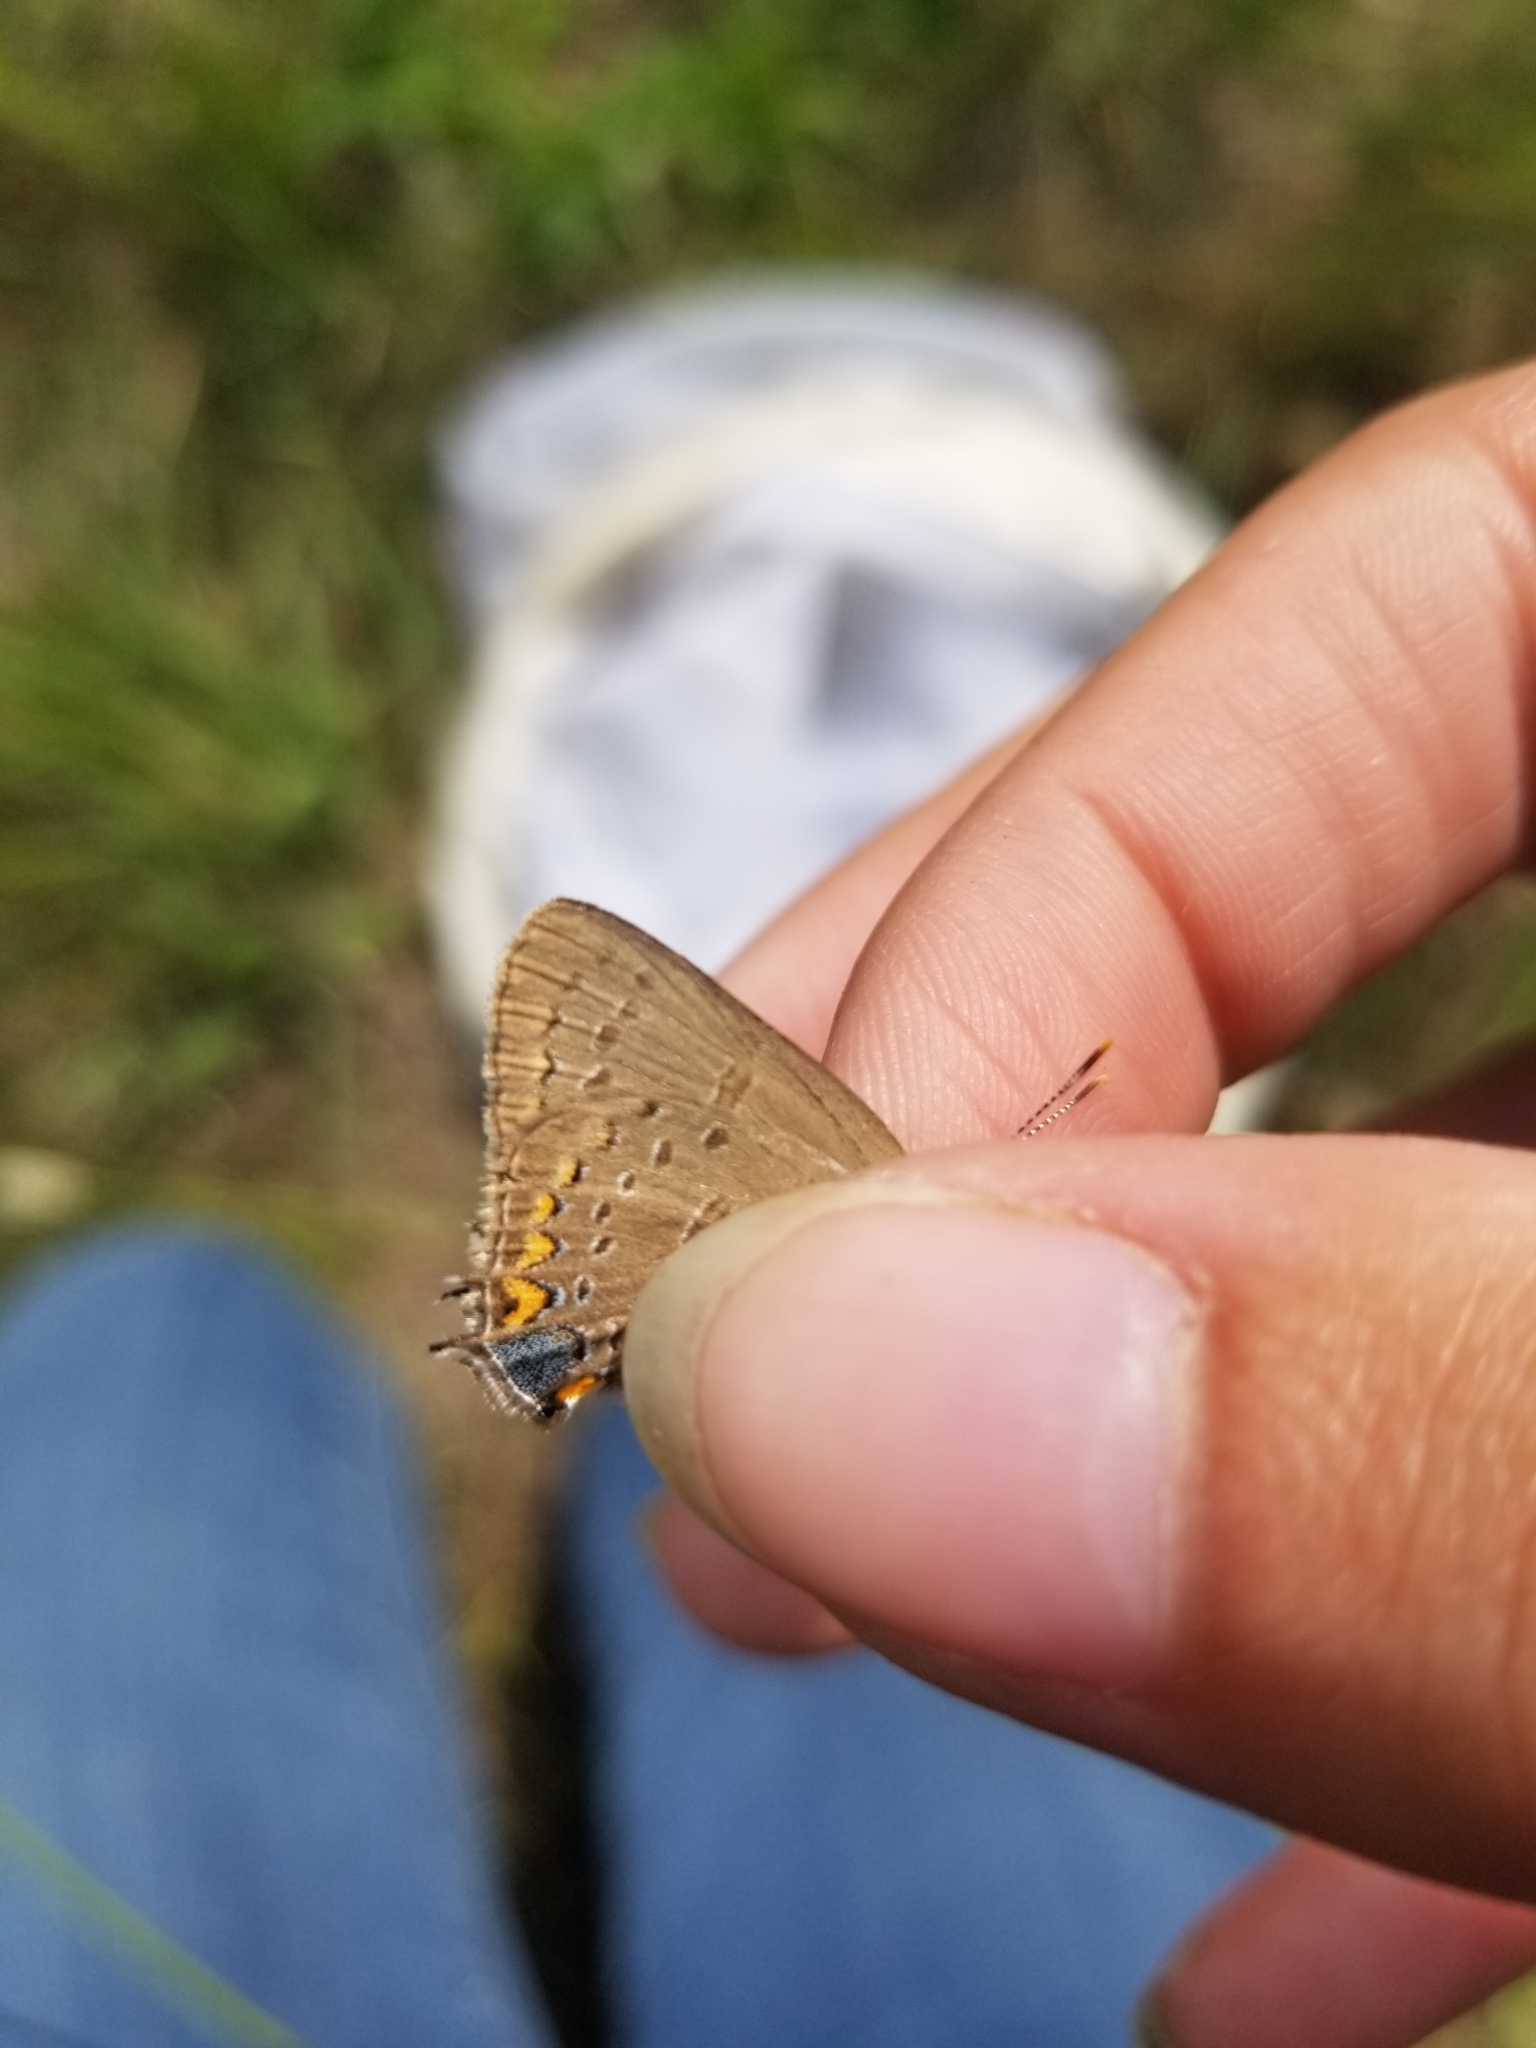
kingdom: Animalia
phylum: Arthropoda
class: Insecta
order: Lepidoptera
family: Lycaenidae
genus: Satyrium
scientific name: Satyrium edwardsii
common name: Edwards' hairstreak
